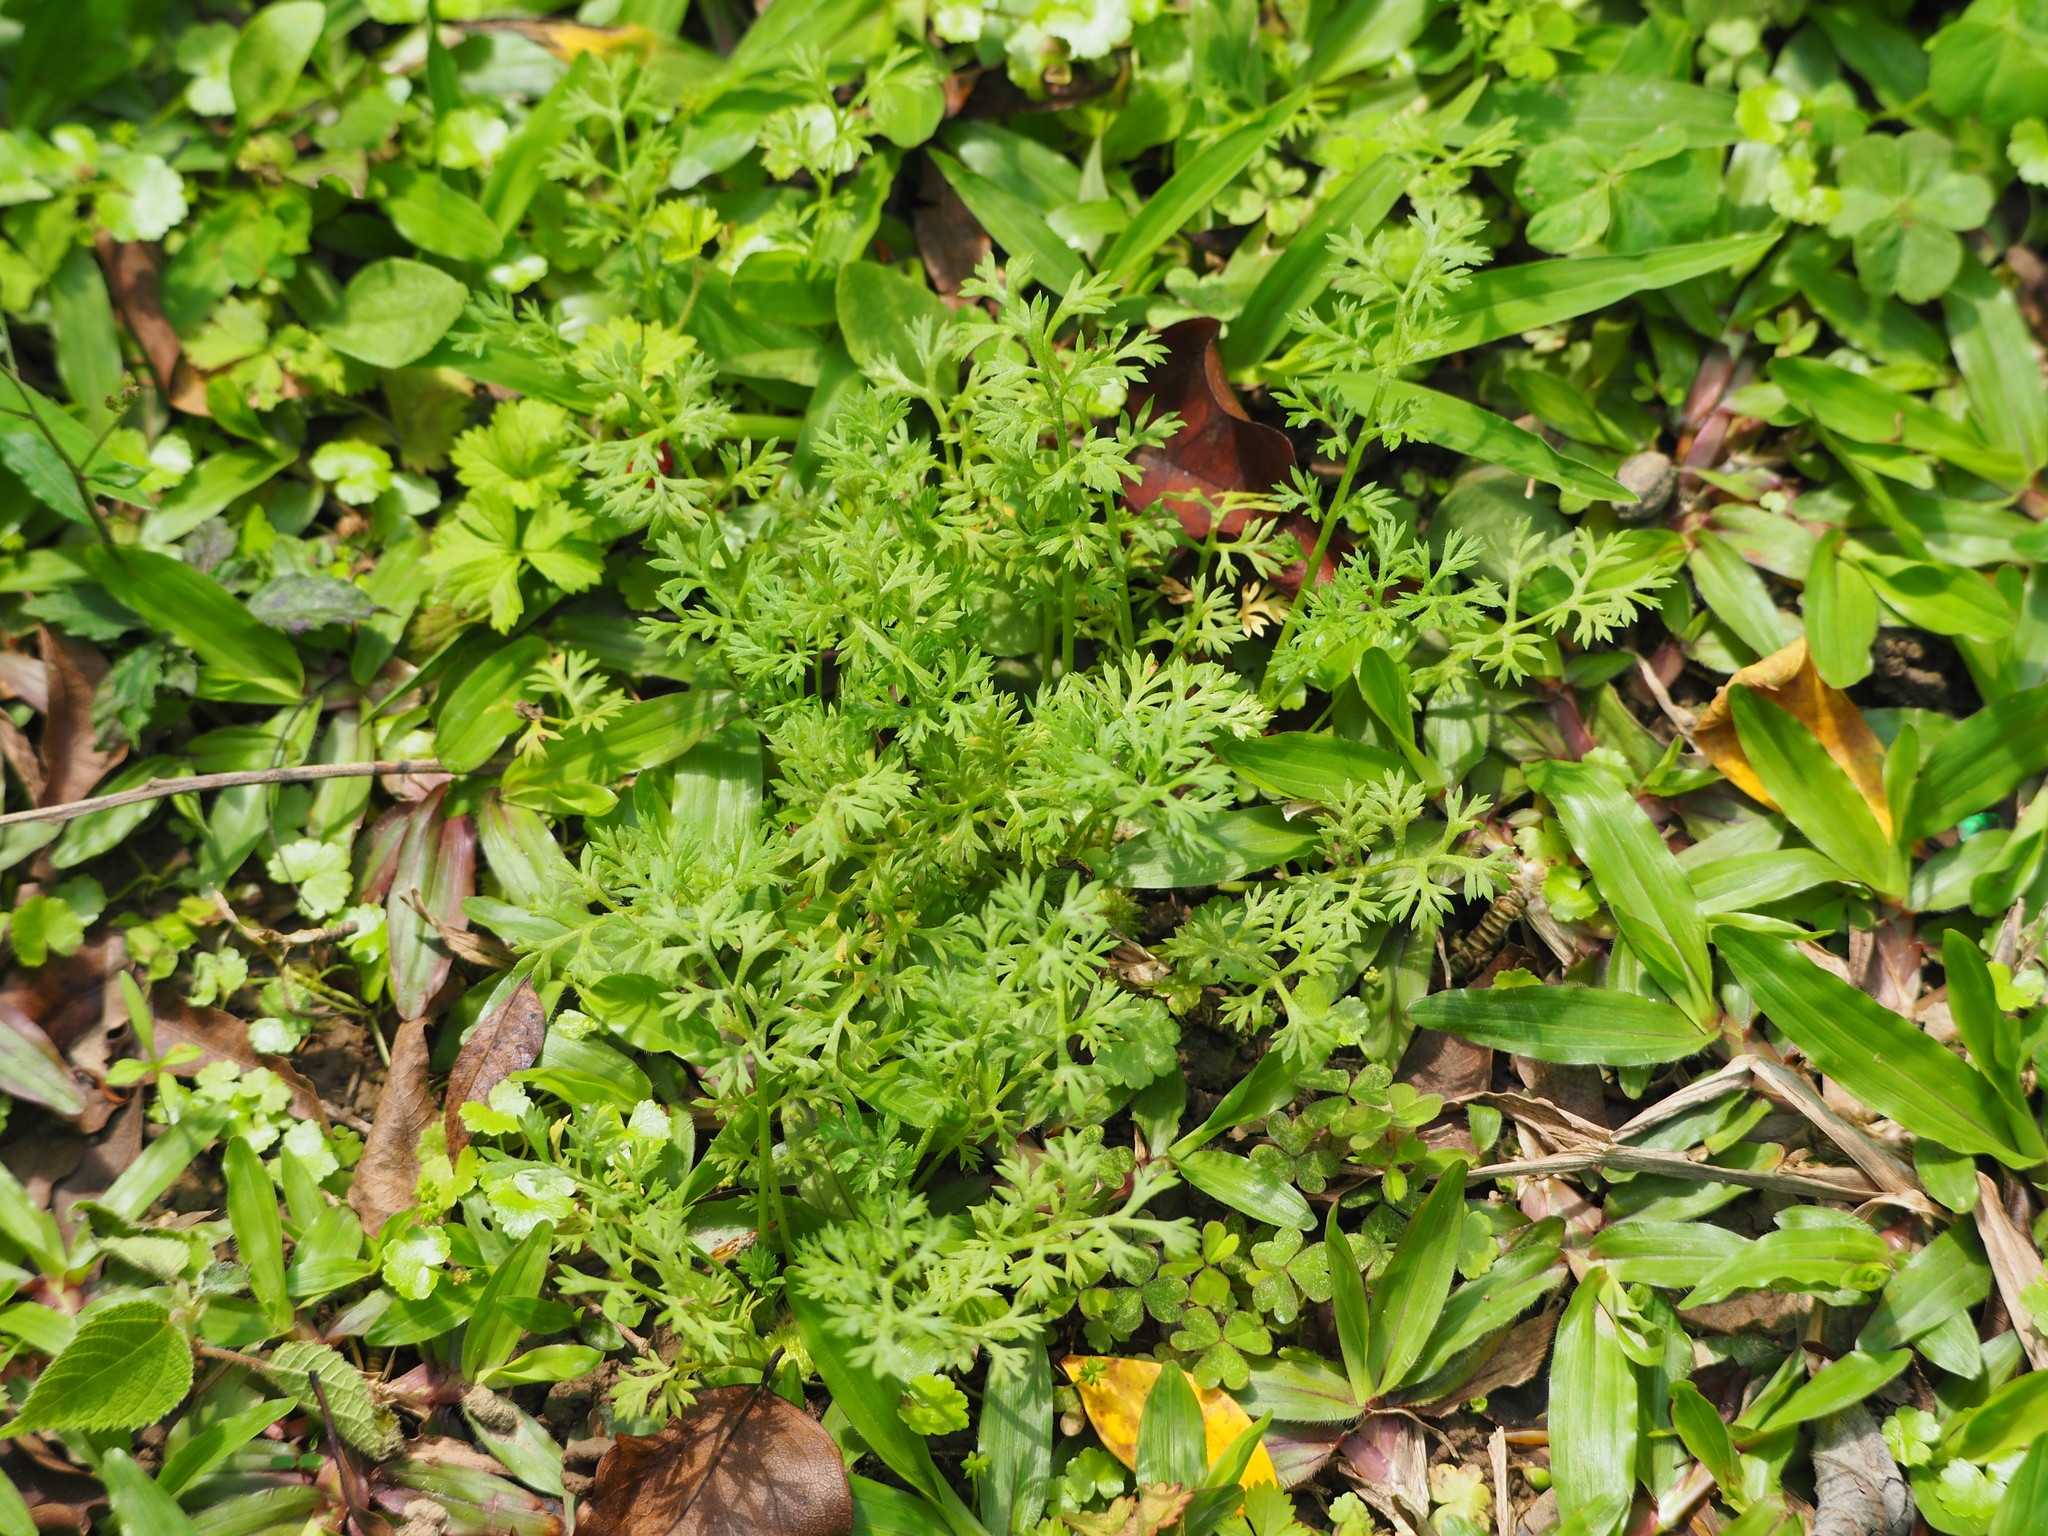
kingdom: Plantae
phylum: Tracheophyta
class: Magnoliopsida
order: Asterales
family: Asteraceae
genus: Soliva
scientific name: Soliva anthemifolia
